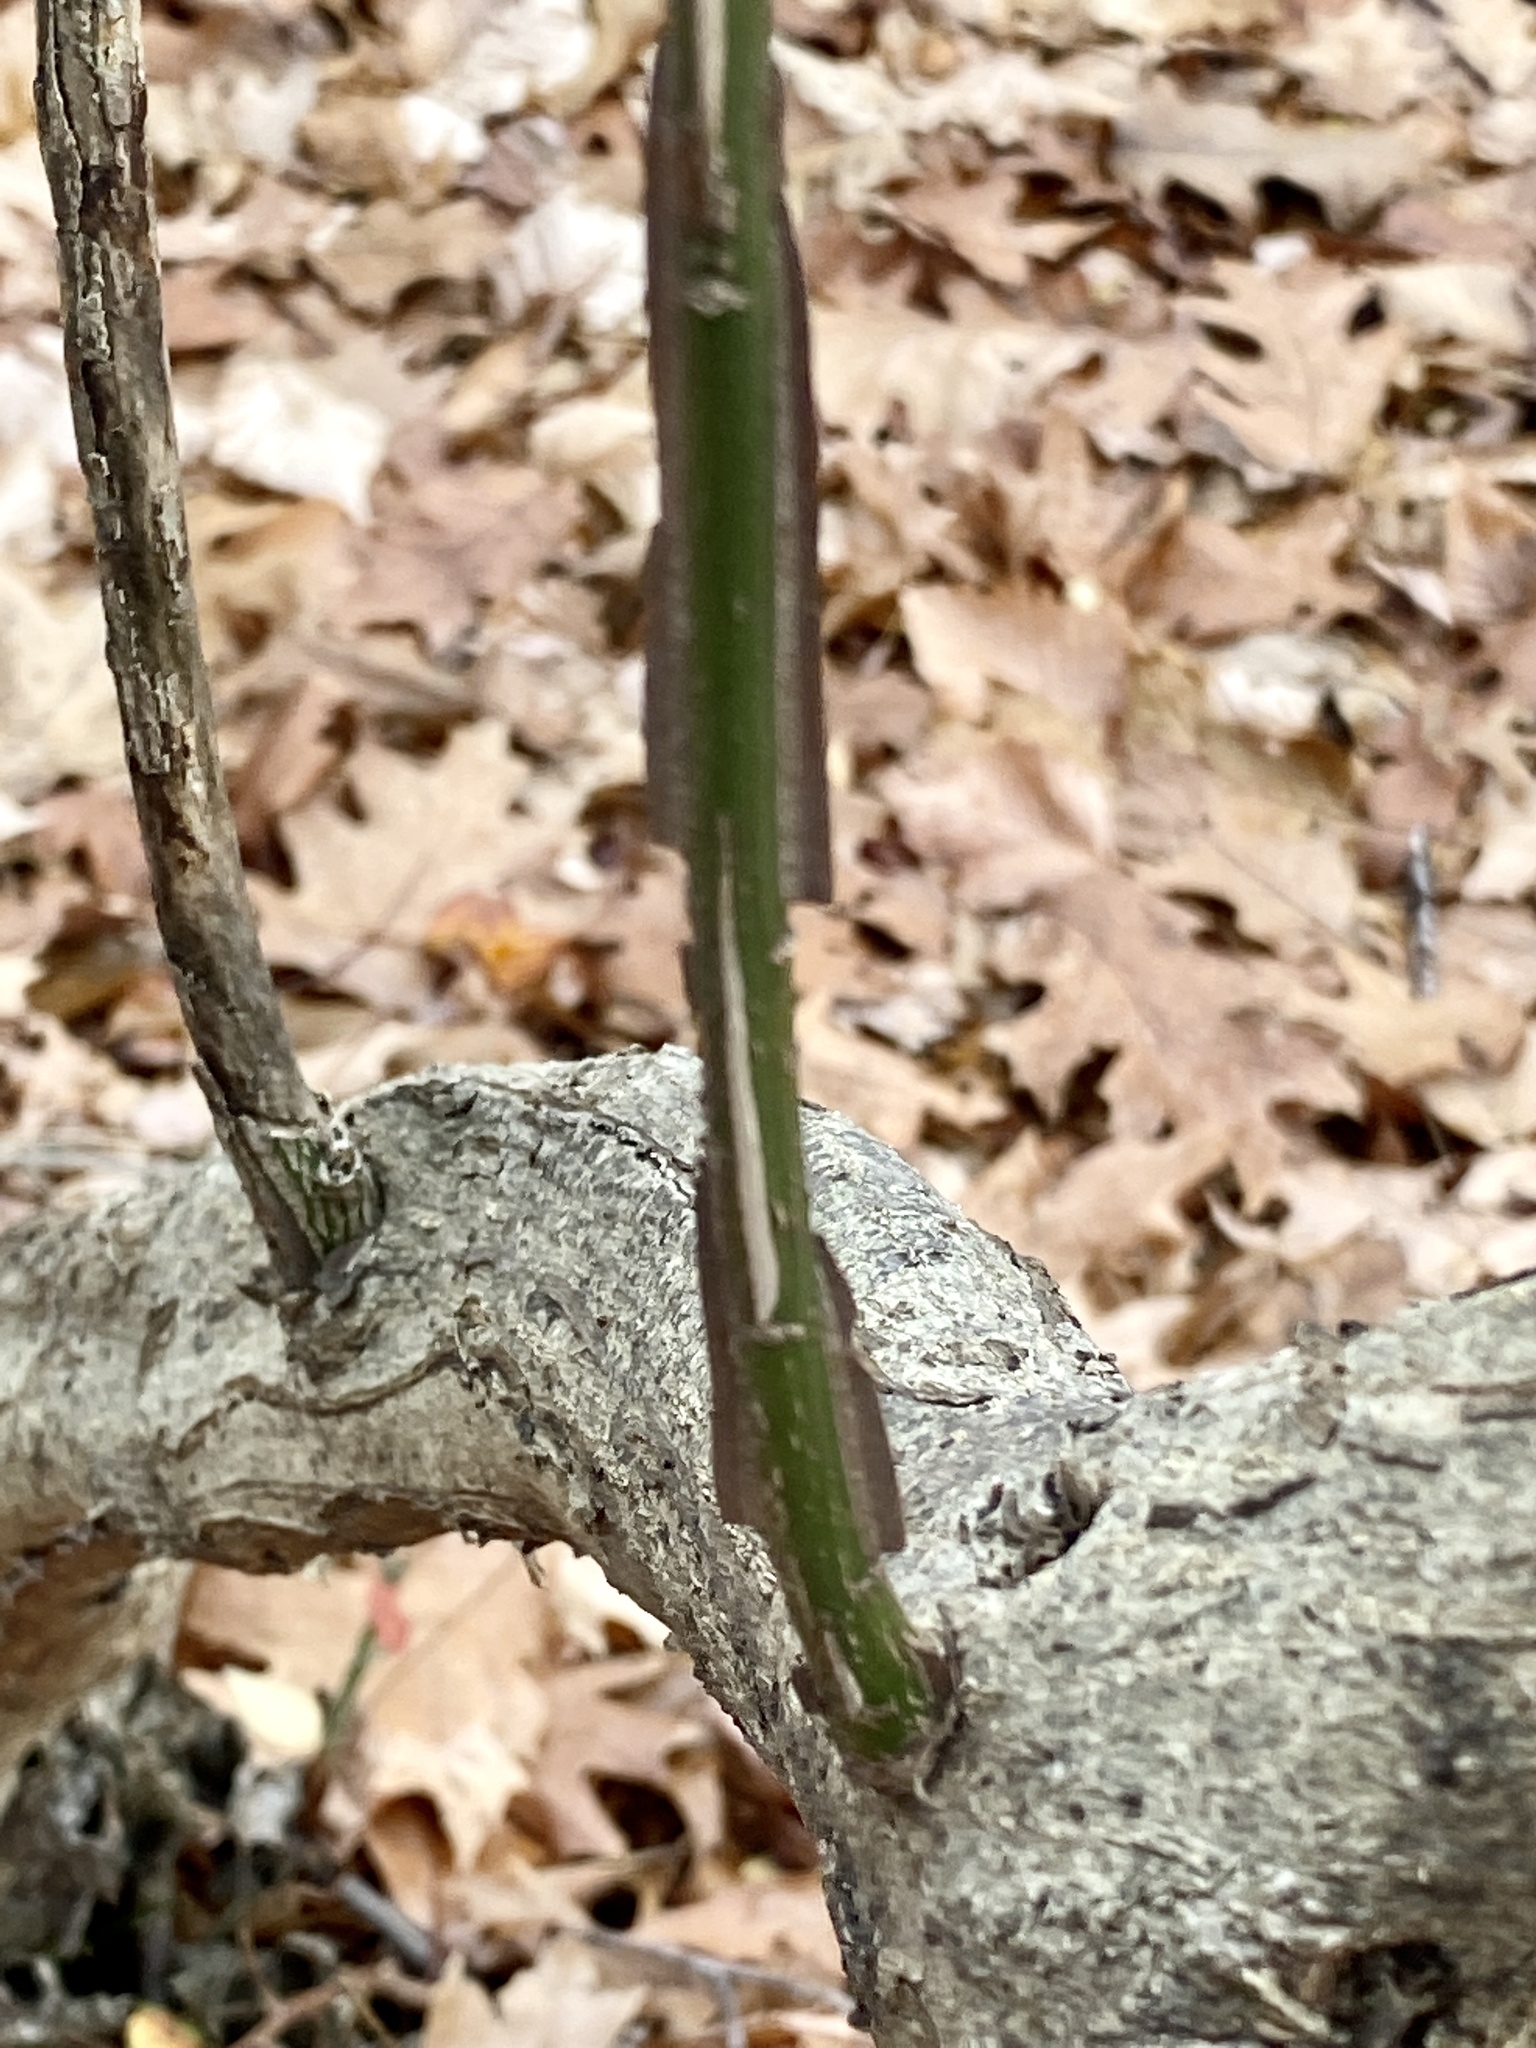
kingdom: Plantae
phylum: Tracheophyta
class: Magnoliopsida
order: Celastrales
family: Celastraceae
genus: Euonymus
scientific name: Euonymus alatus
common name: Winged euonymus
